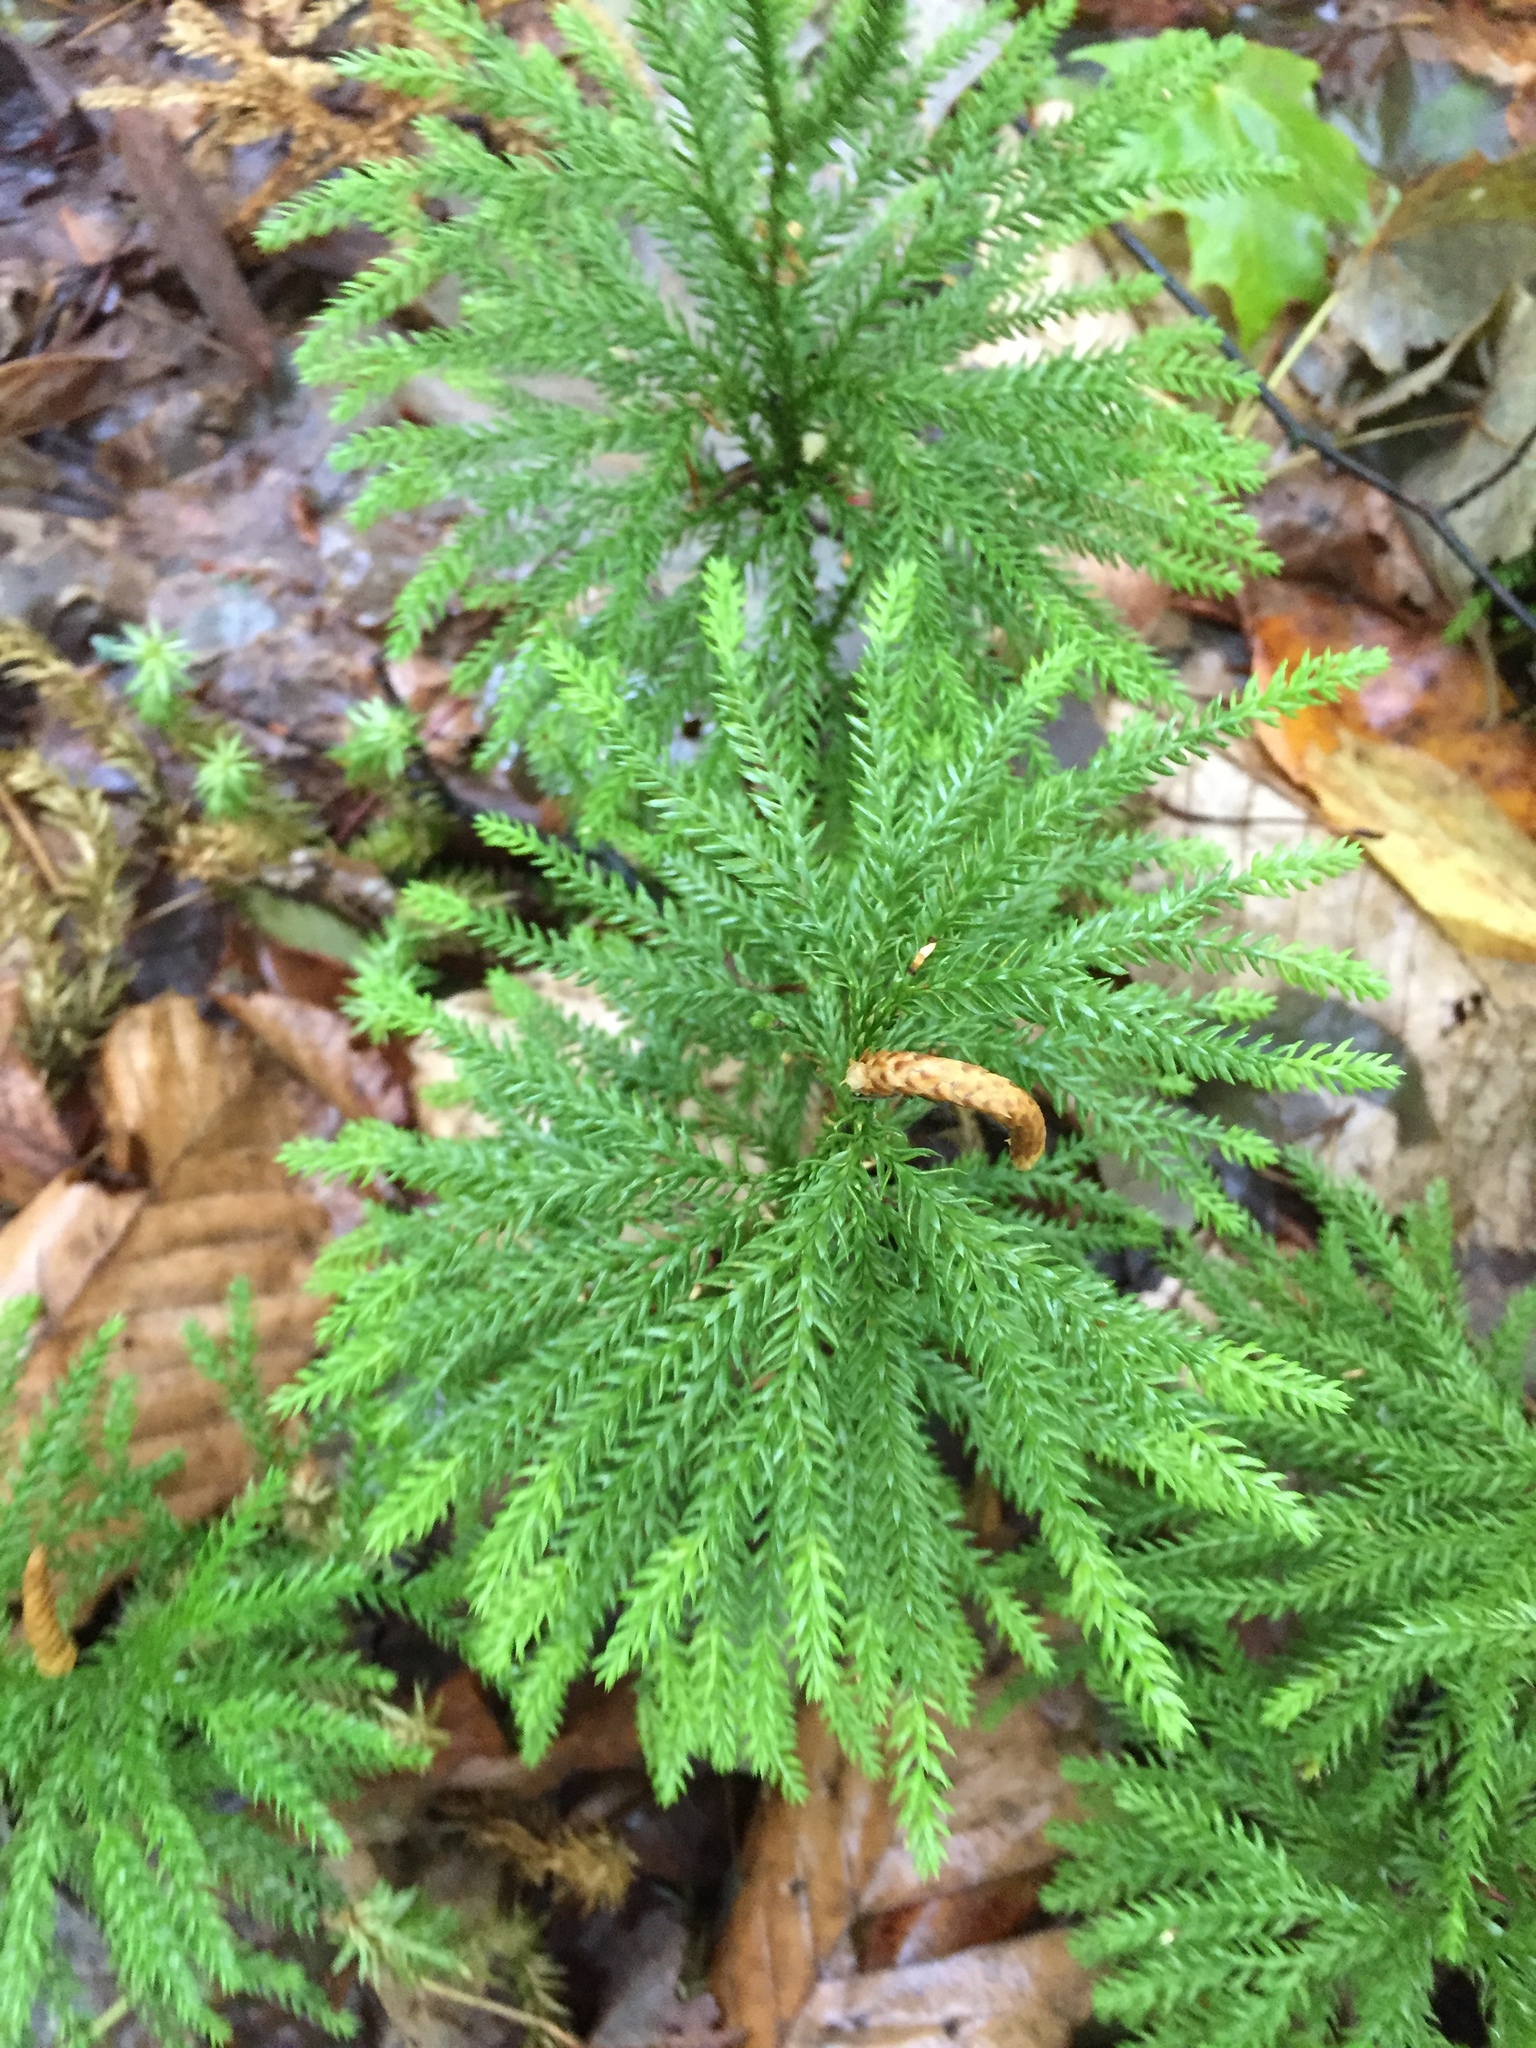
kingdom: Plantae
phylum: Tracheophyta
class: Lycopodiopsida
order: Lycopodiales
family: Lycopodiaceae
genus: Dendrolycopodium
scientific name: Dendrolycopodium obscurum
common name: Common ground-pine
